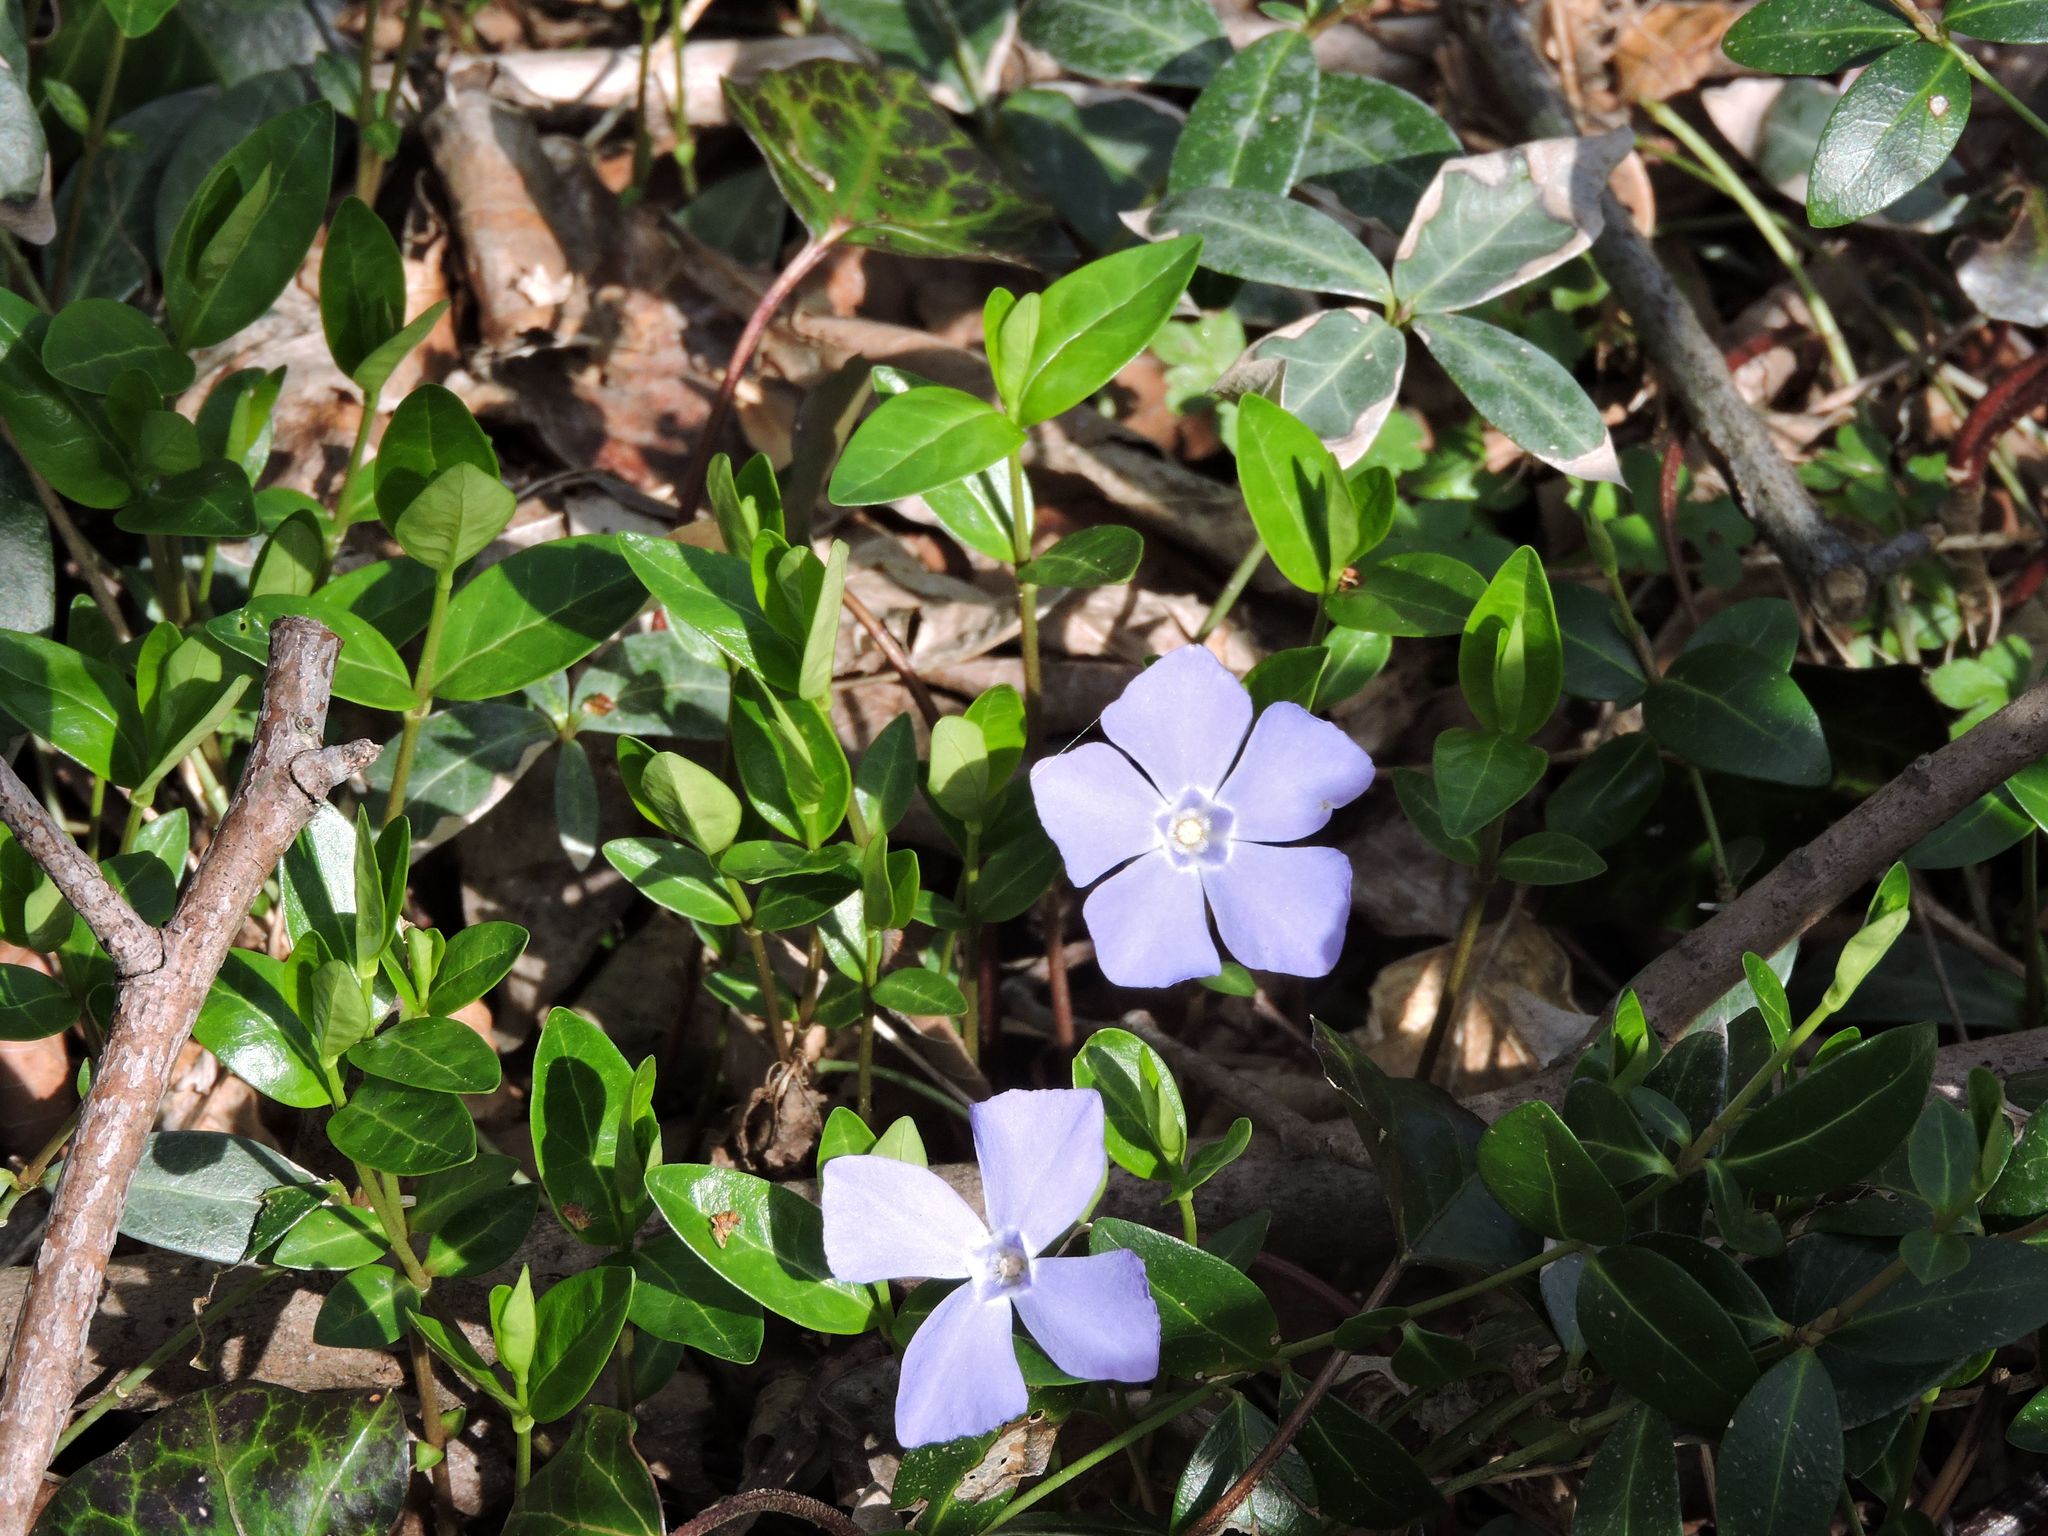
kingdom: Plantae
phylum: Tracheophyta
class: Magnoliopsida
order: Gentianales
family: Apocynaceae
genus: Vinca
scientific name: Vinca minor
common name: Lesser periwinkle
